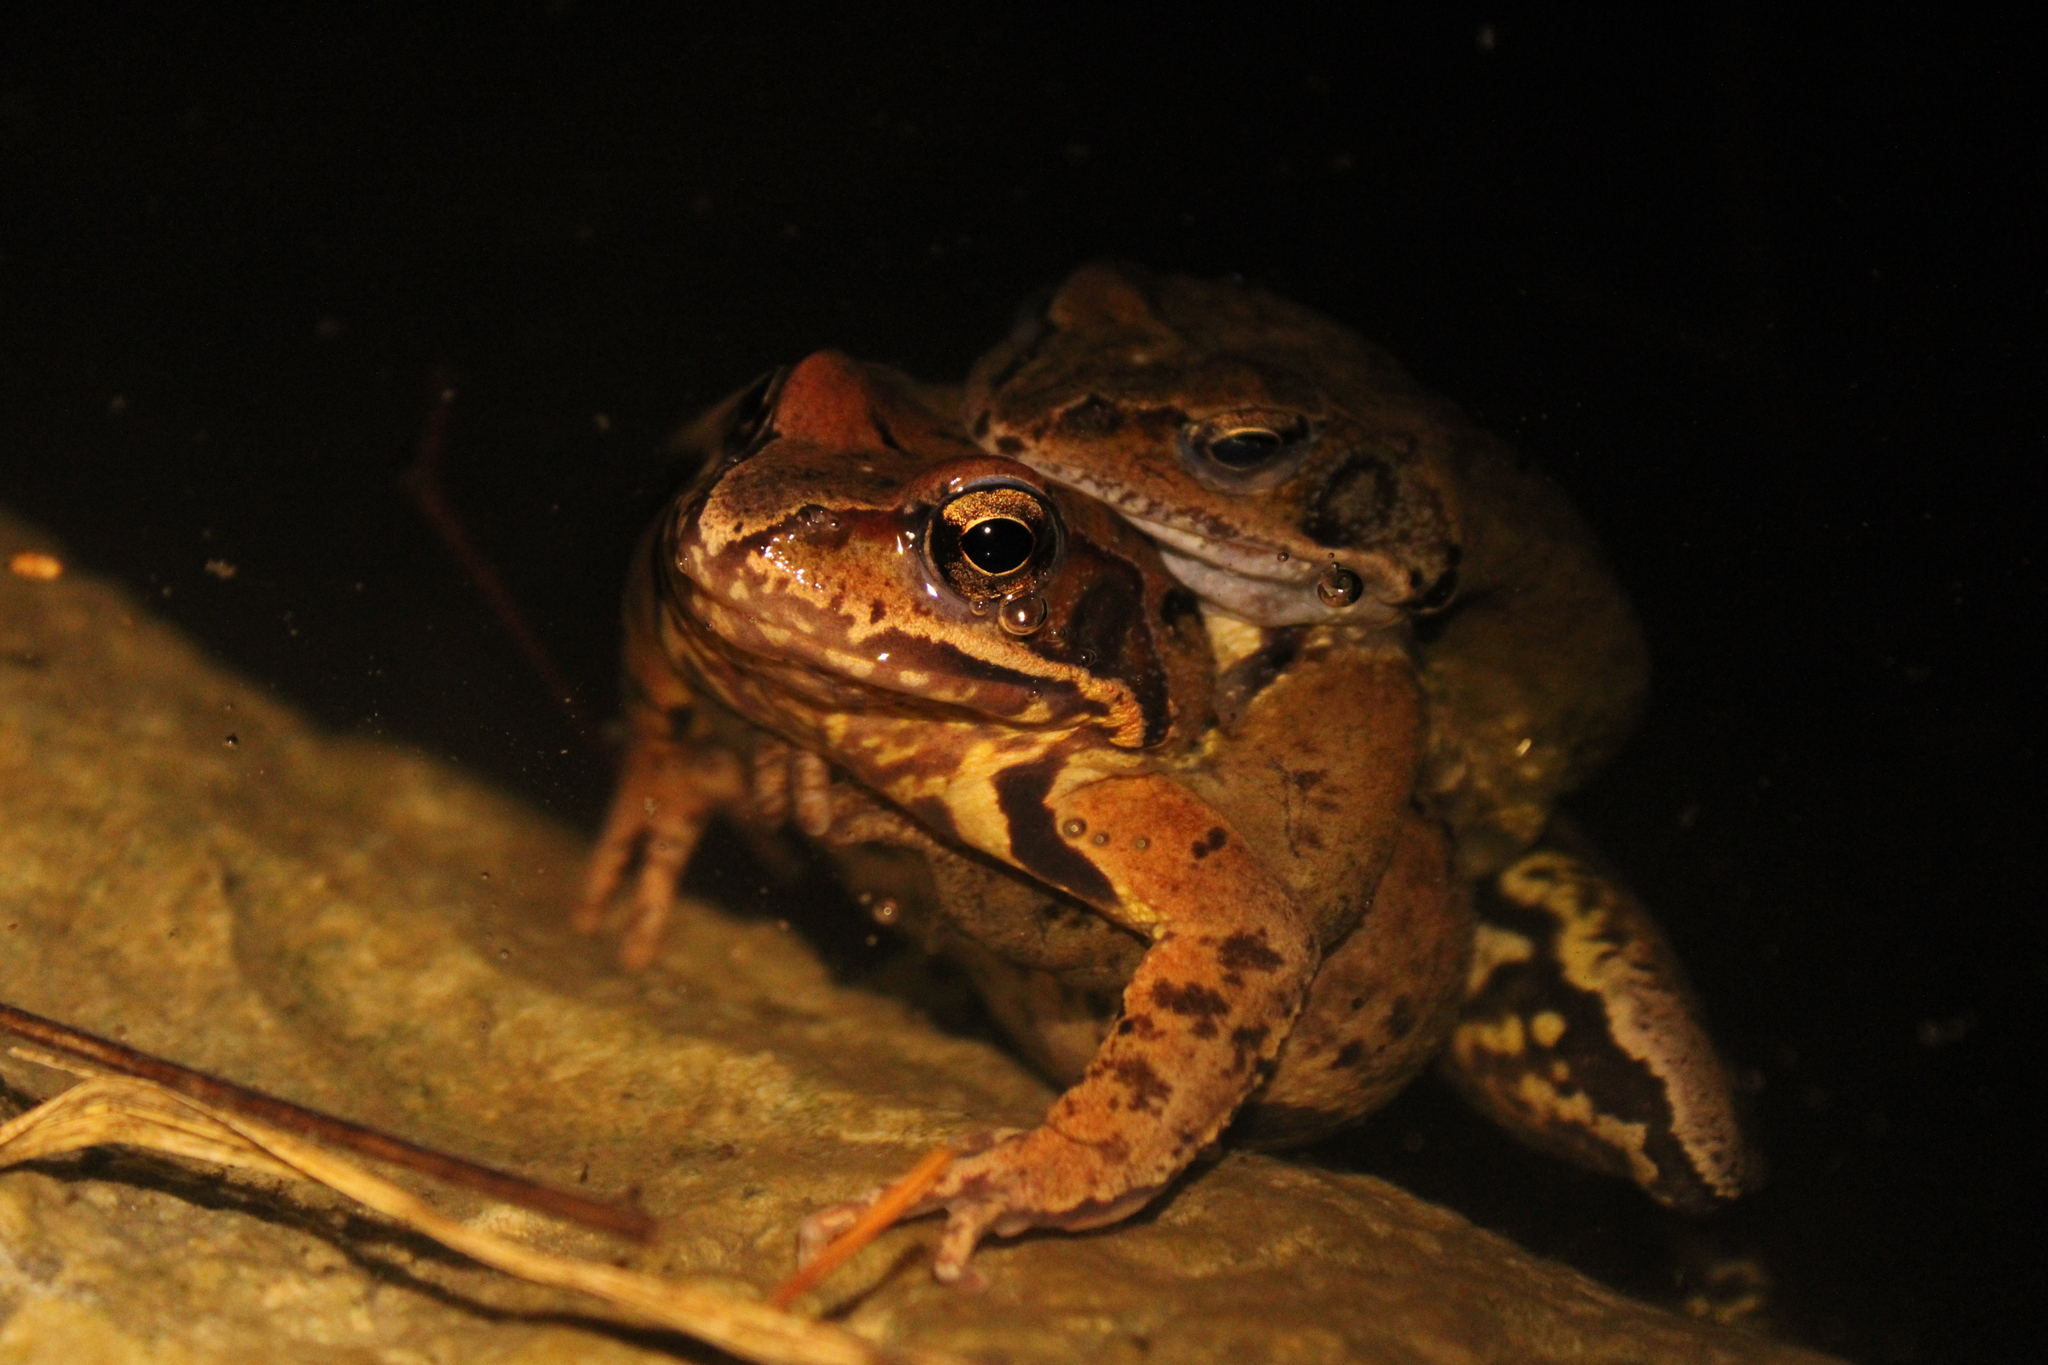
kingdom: Animalia
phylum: Chordata
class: Amphibia
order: Anura
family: Ranidae
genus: Rana
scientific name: Rana temporaria
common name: Common frog
